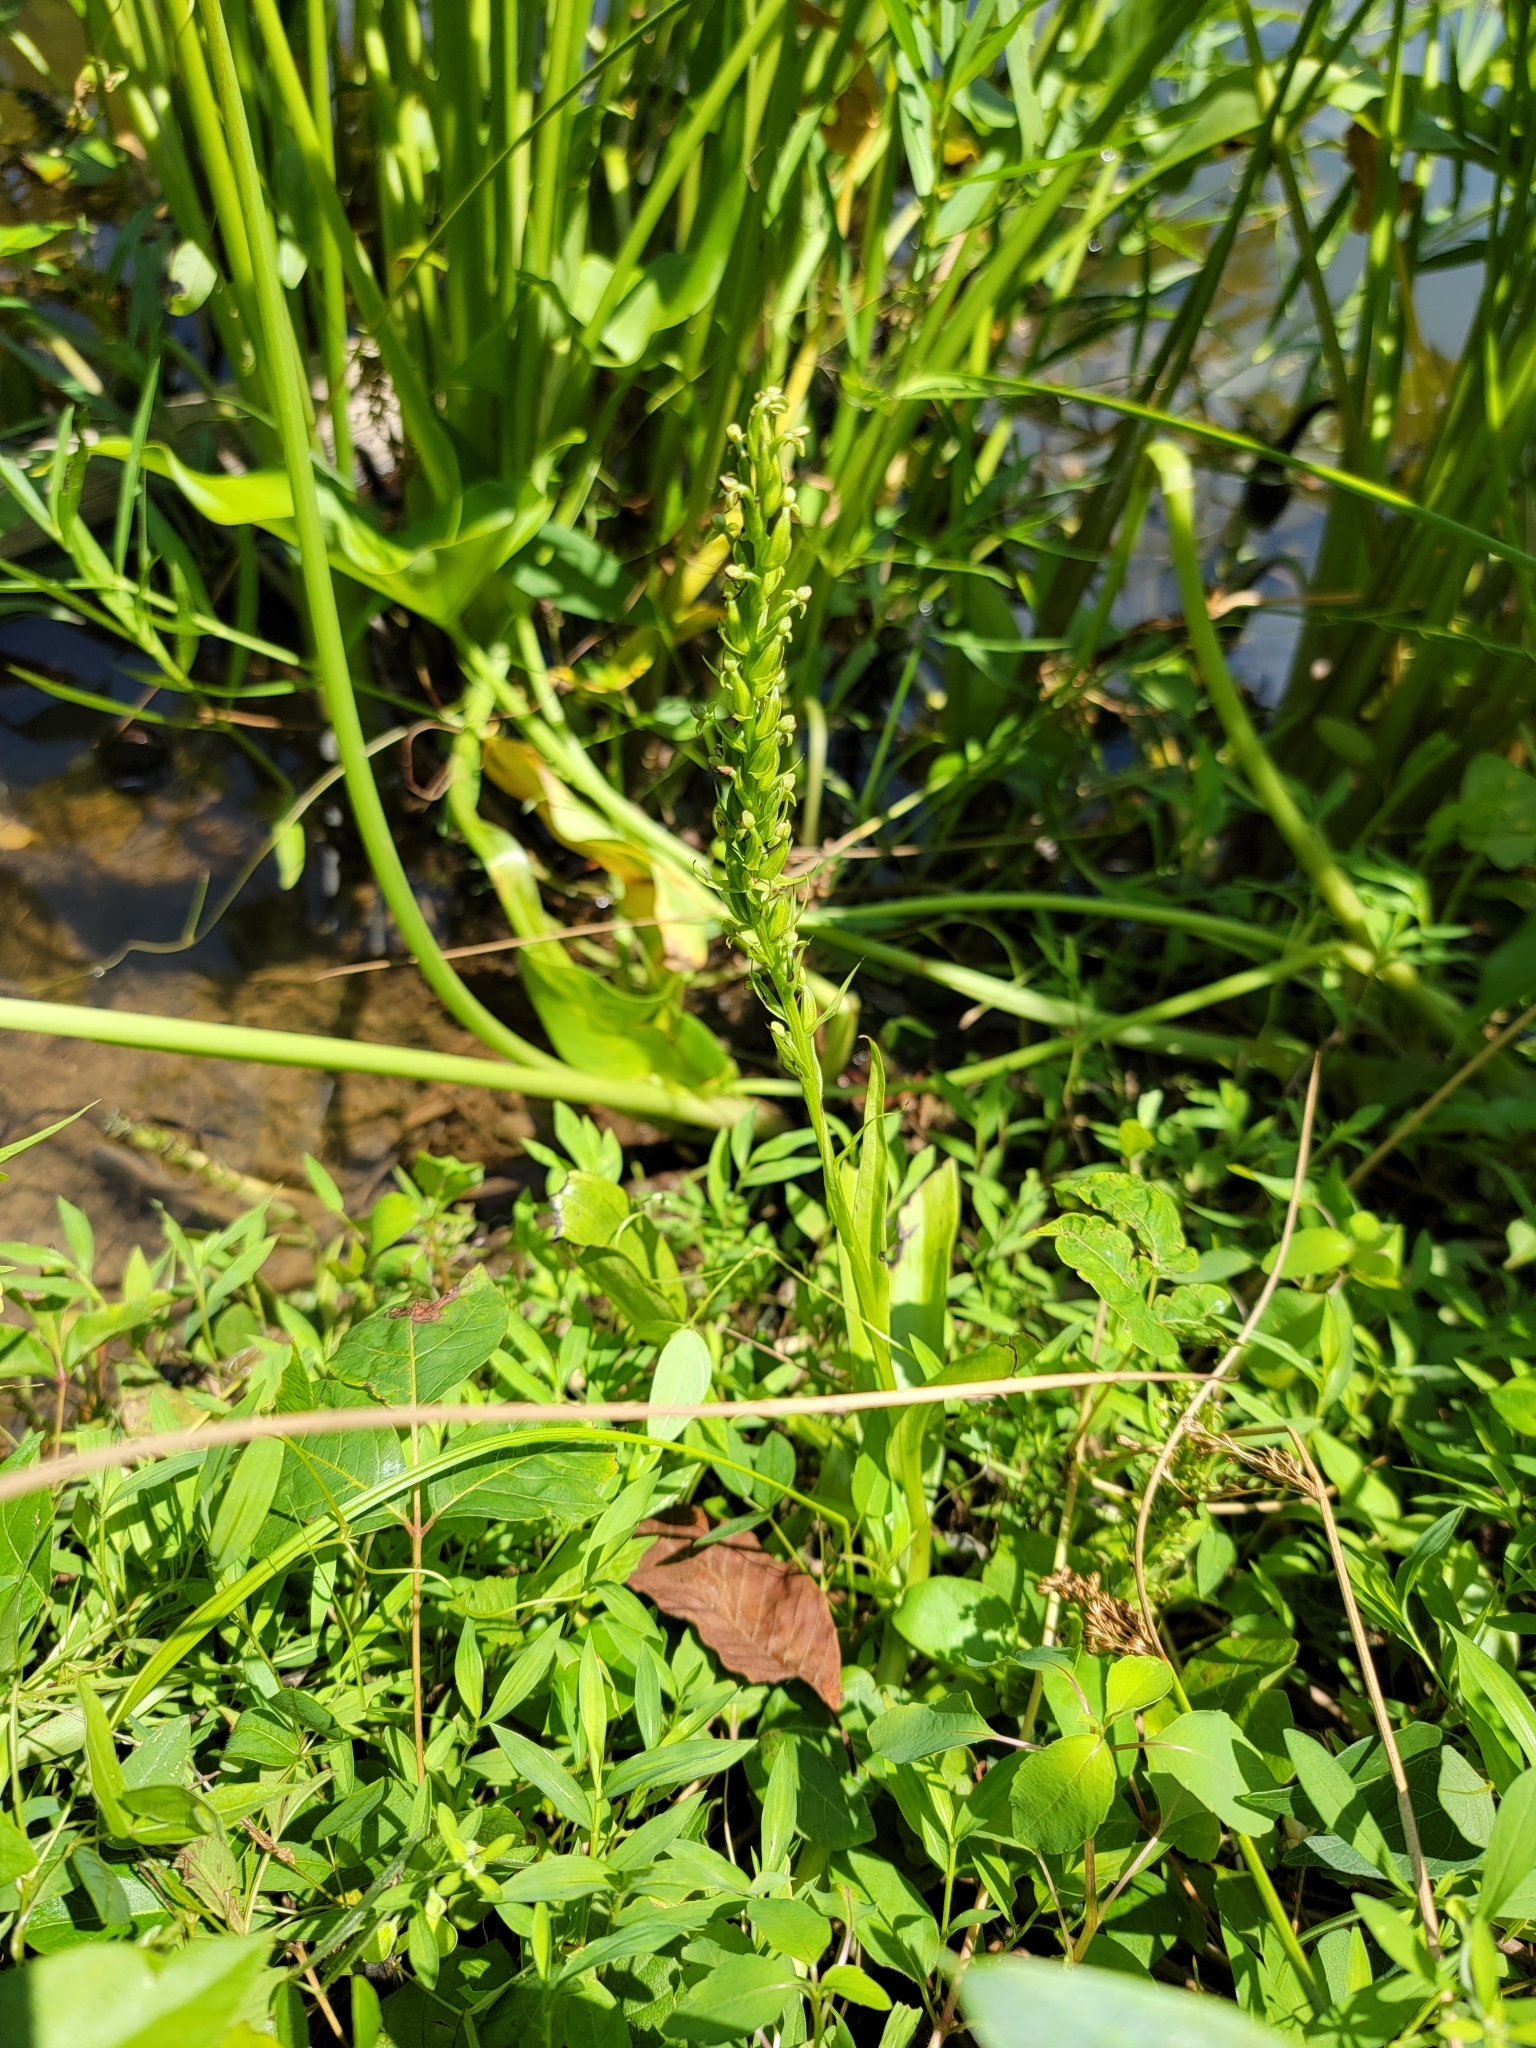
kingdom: Plantae
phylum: Tracheophyta
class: Liliopsida
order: Asparagales
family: Orchidaceae
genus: Platanthera
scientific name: Platanthera flava
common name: Gypsy-spikes
